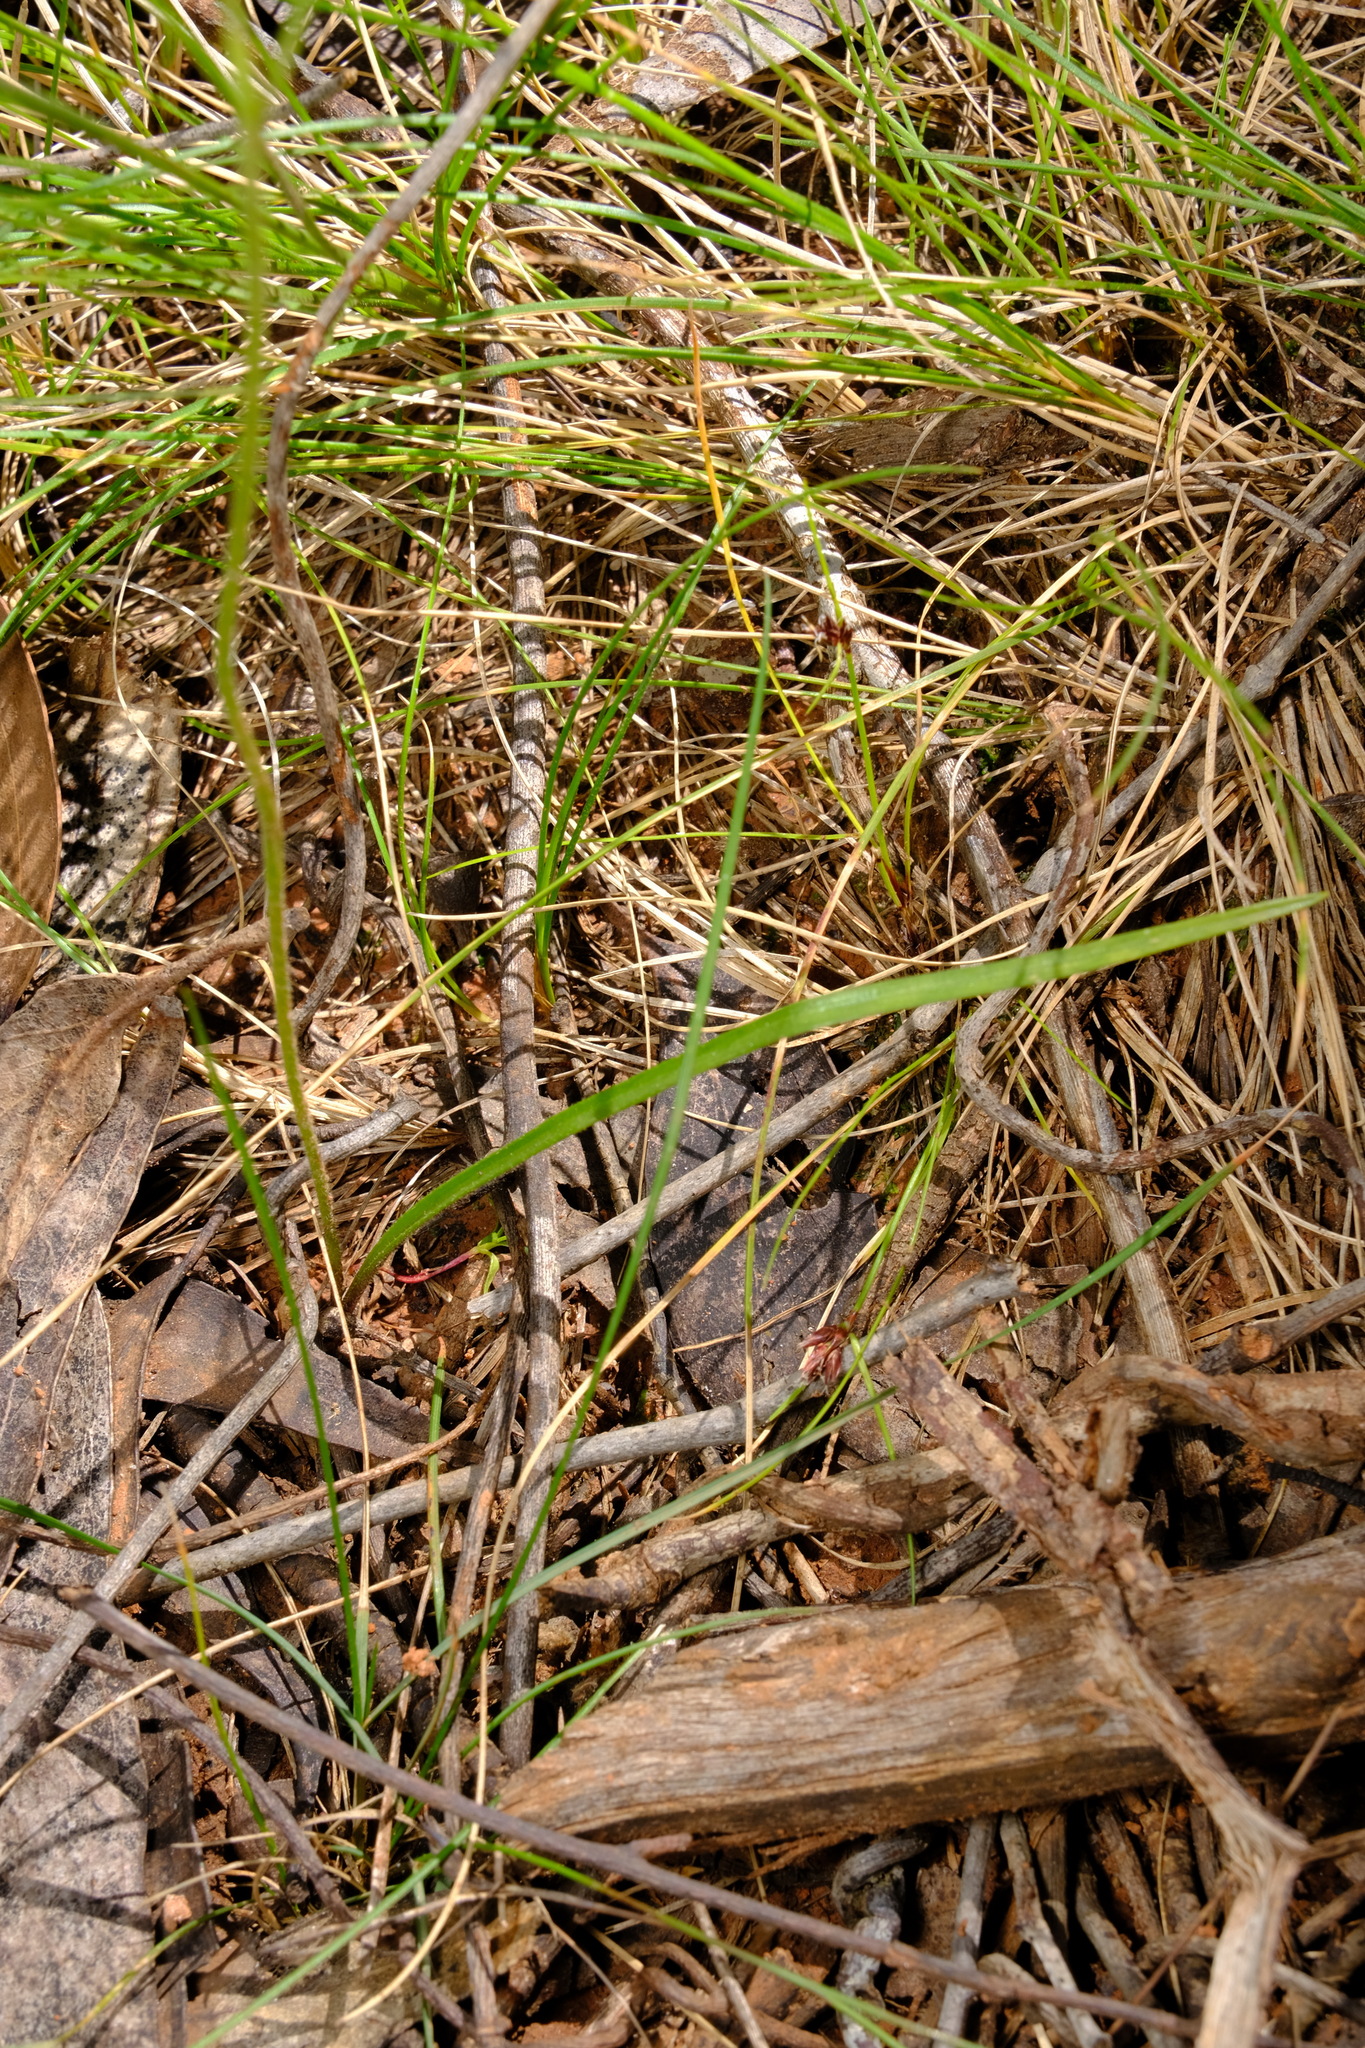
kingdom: Plantae
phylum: Tracheophyta
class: Liliopsida
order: Asparagales
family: Orchidaceae
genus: Caladenia
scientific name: Caladenia carnea
